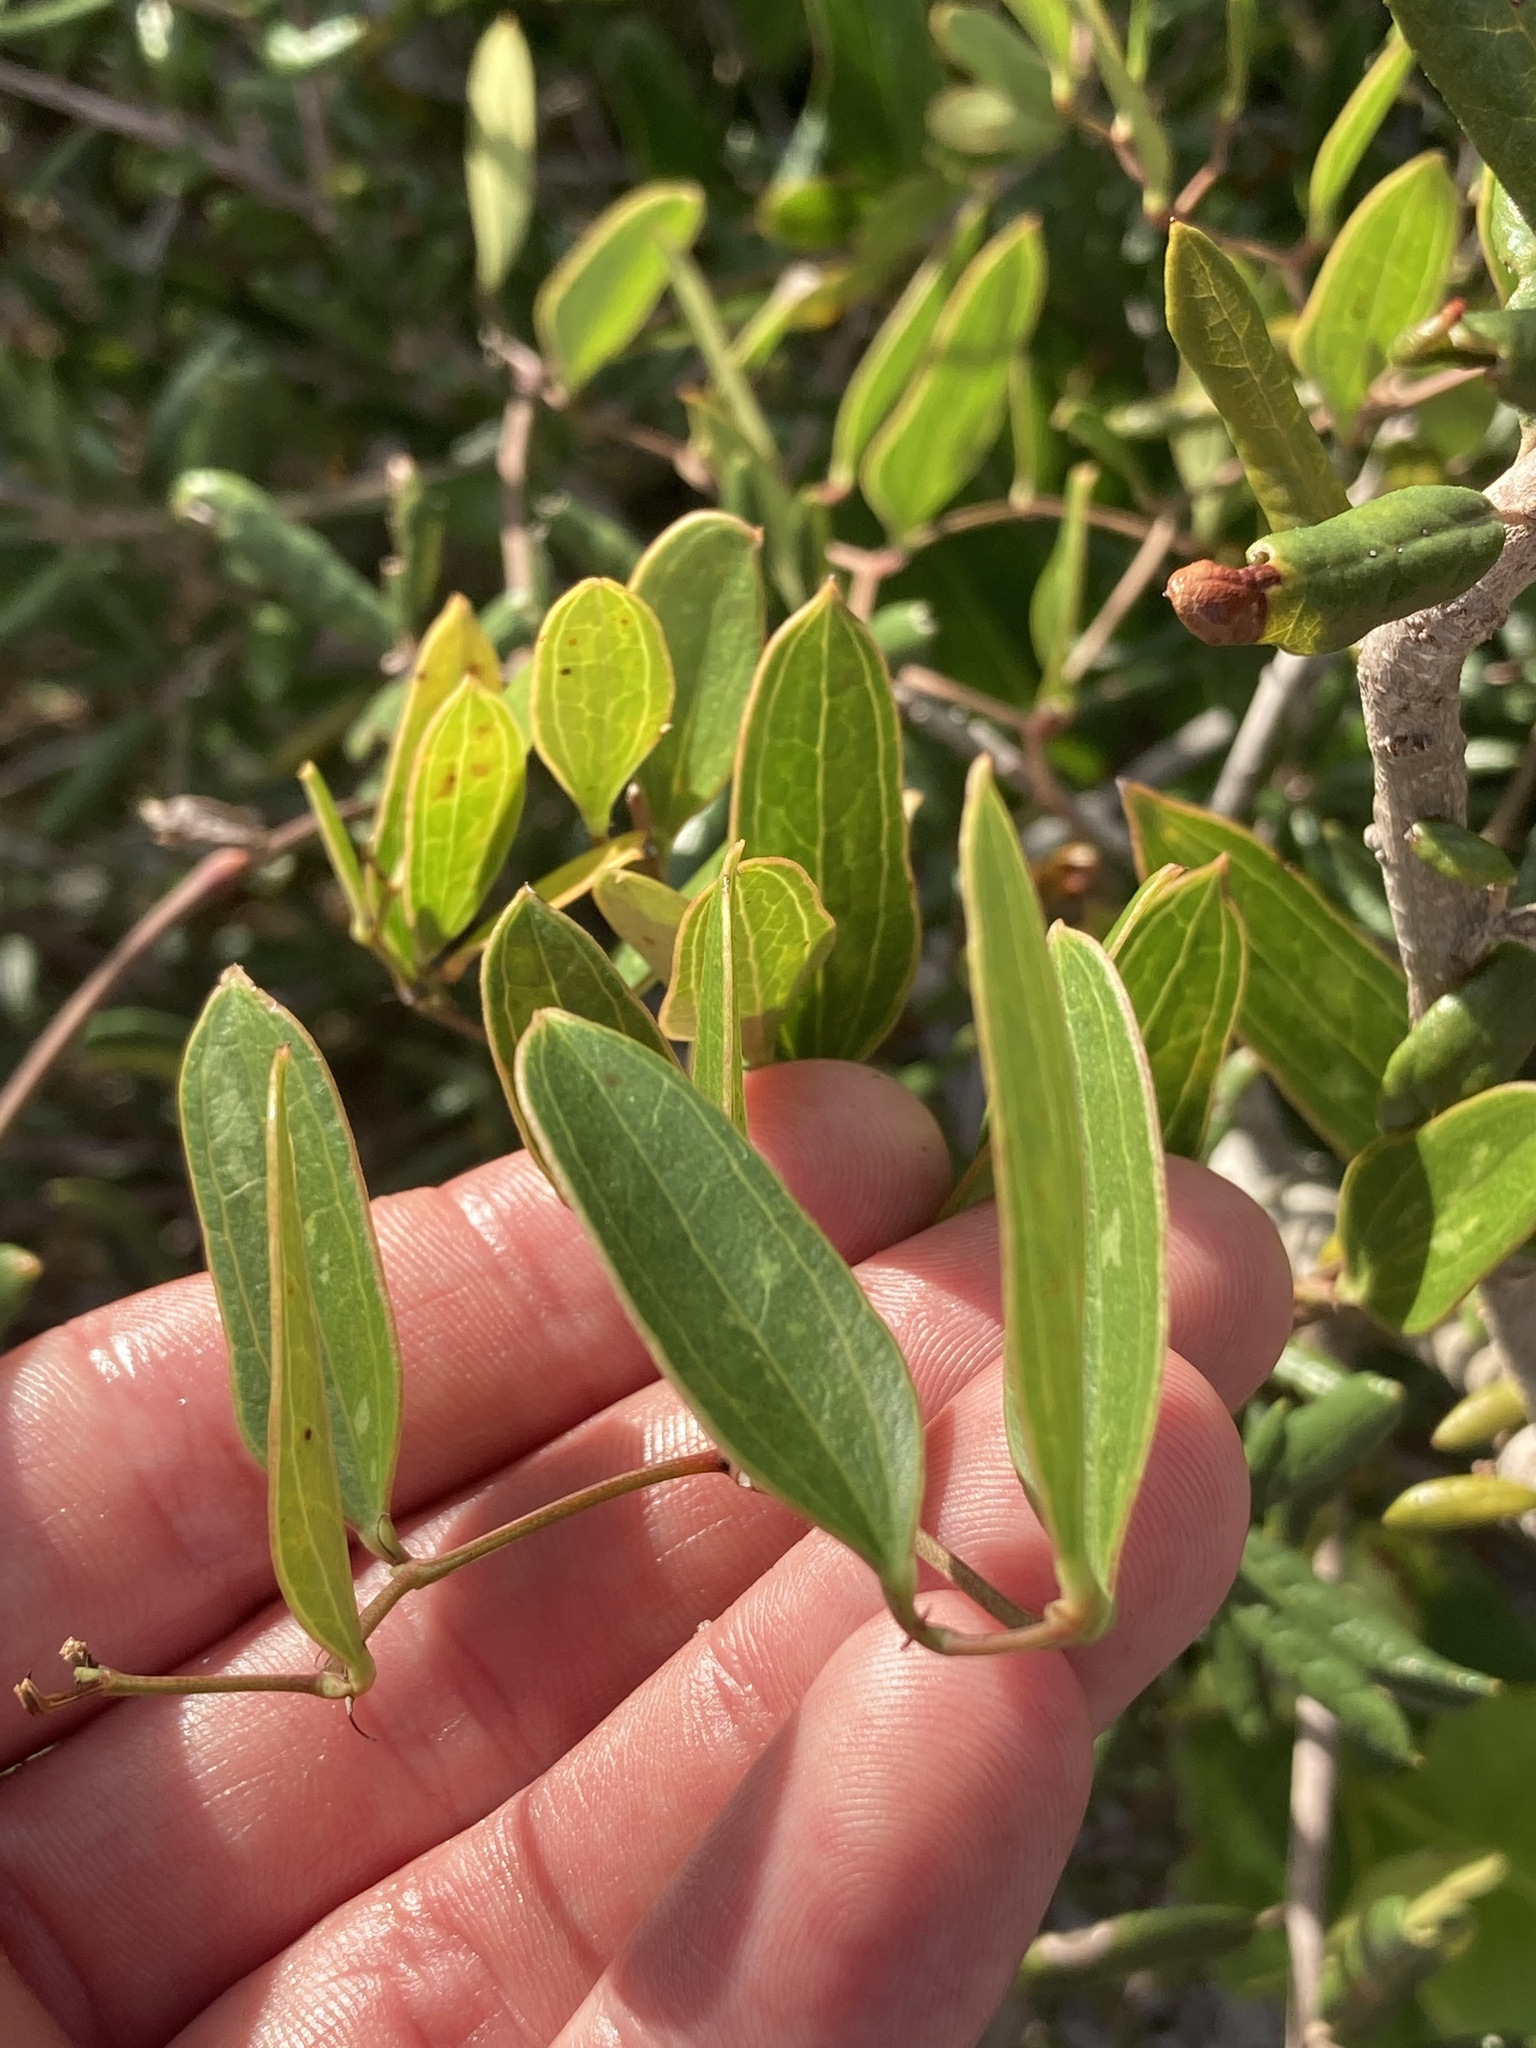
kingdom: Plantae
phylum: Tracheophyta
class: Liliopsida
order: Liliales
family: Smilacaceae
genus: Smilax
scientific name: Smilax auriculata
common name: Wild bamboo
